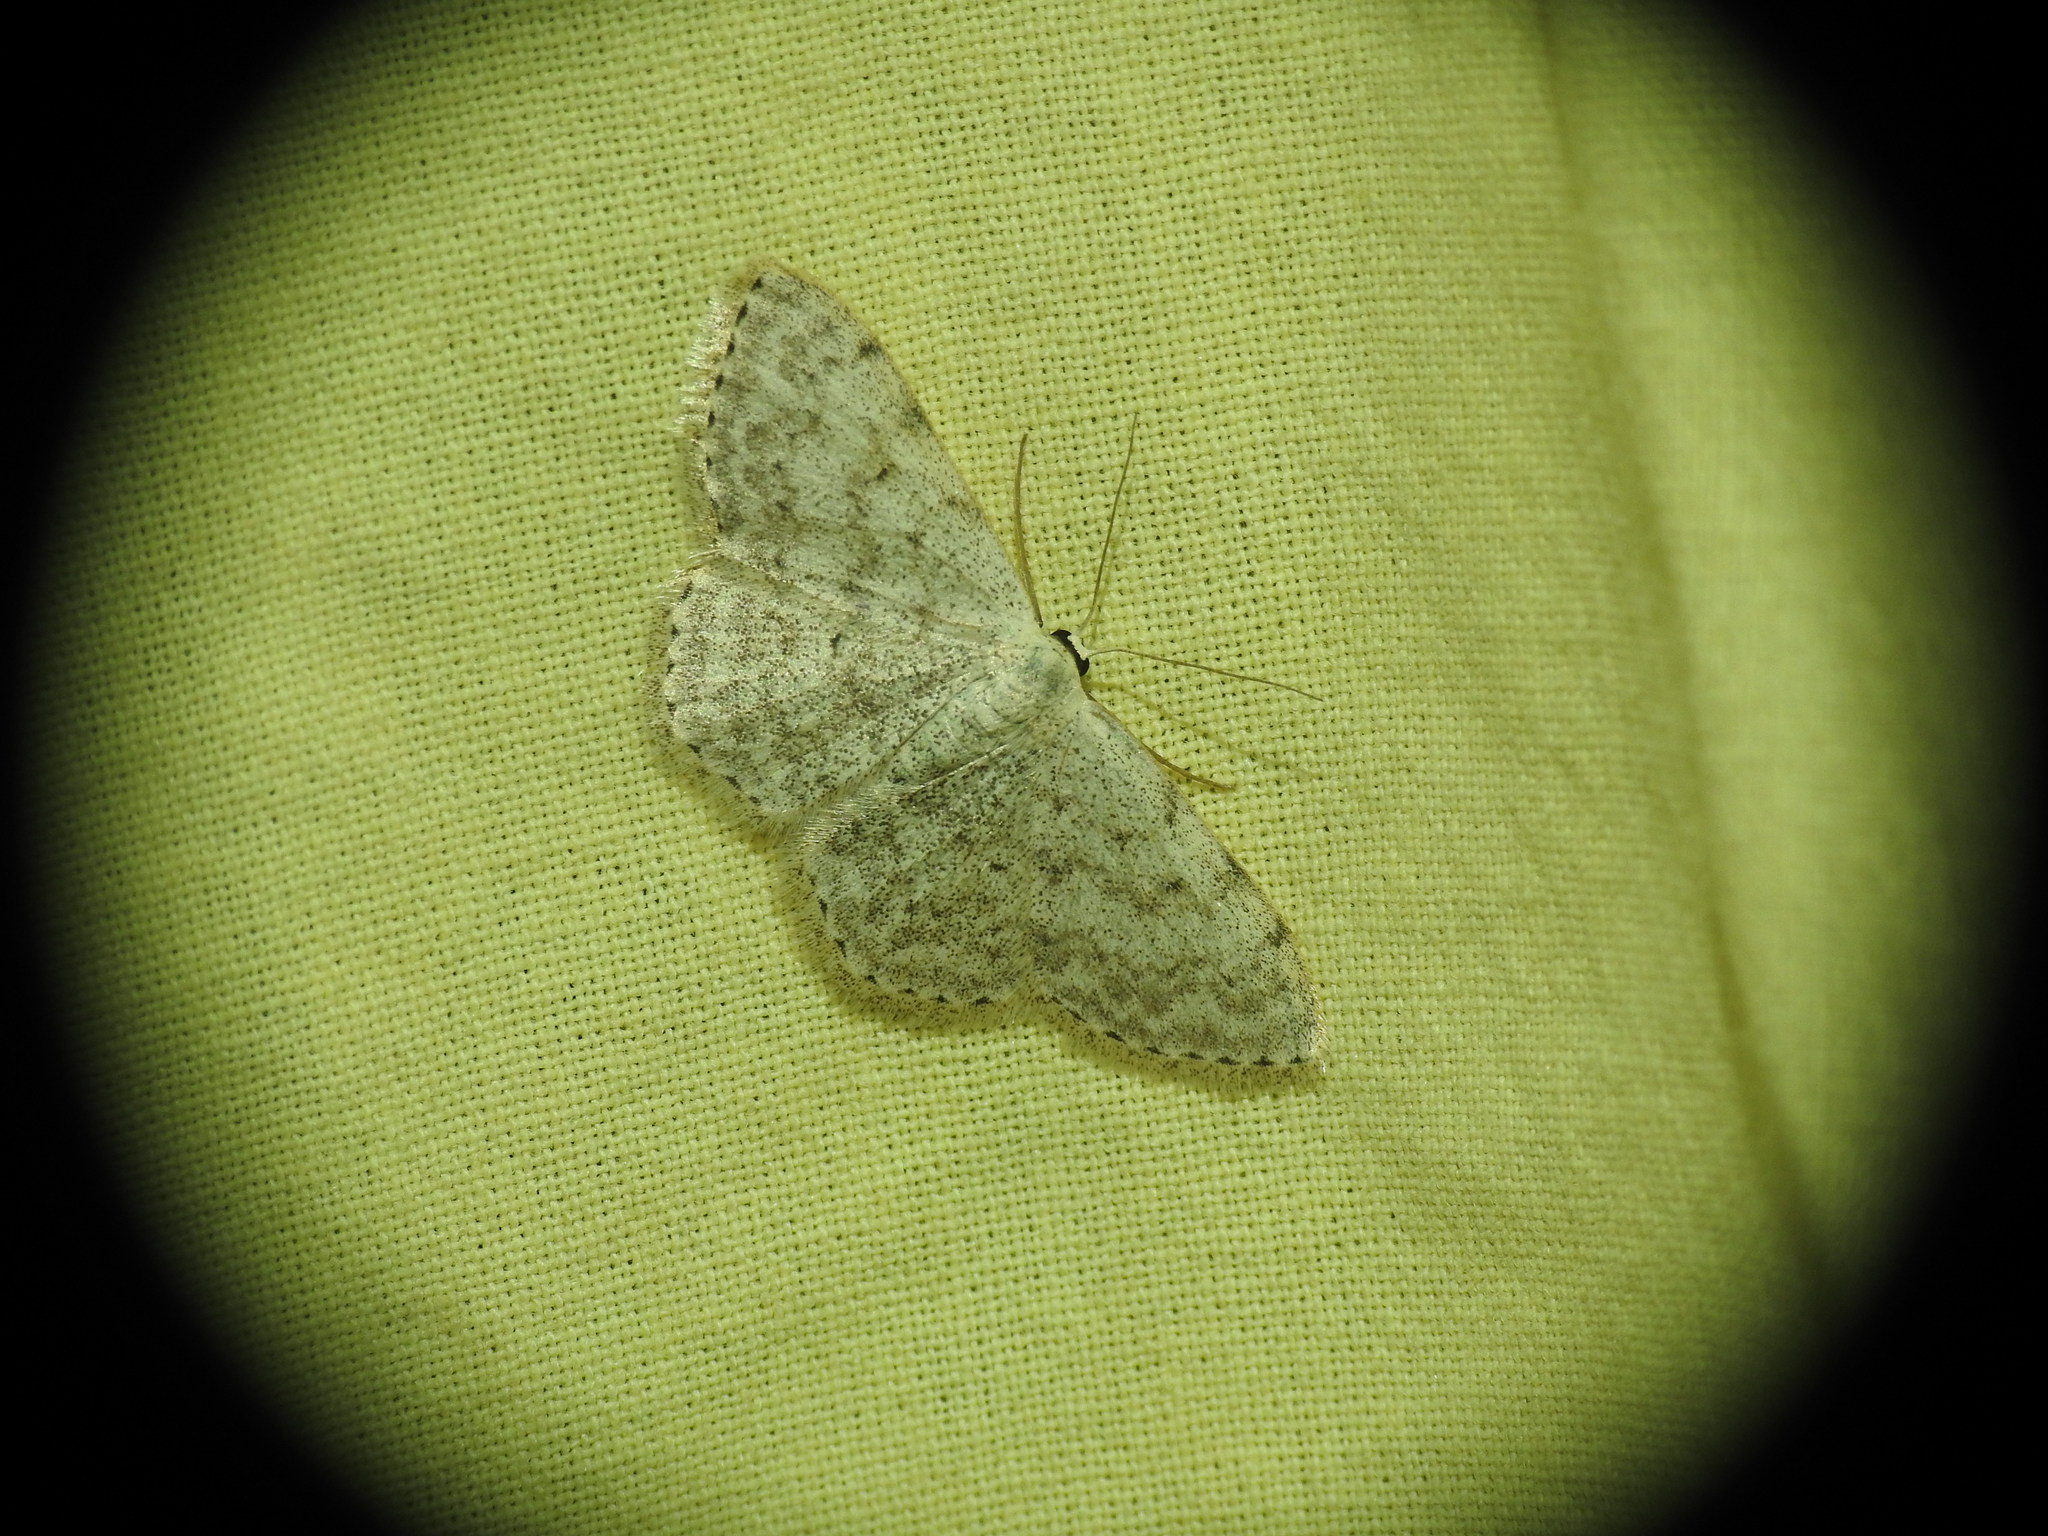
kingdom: Animalia
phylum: Arthropoda
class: Insecta
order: Lepidoptera
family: Geometridae
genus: Scopula
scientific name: Scopula marginepunctata
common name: Mullein wave
